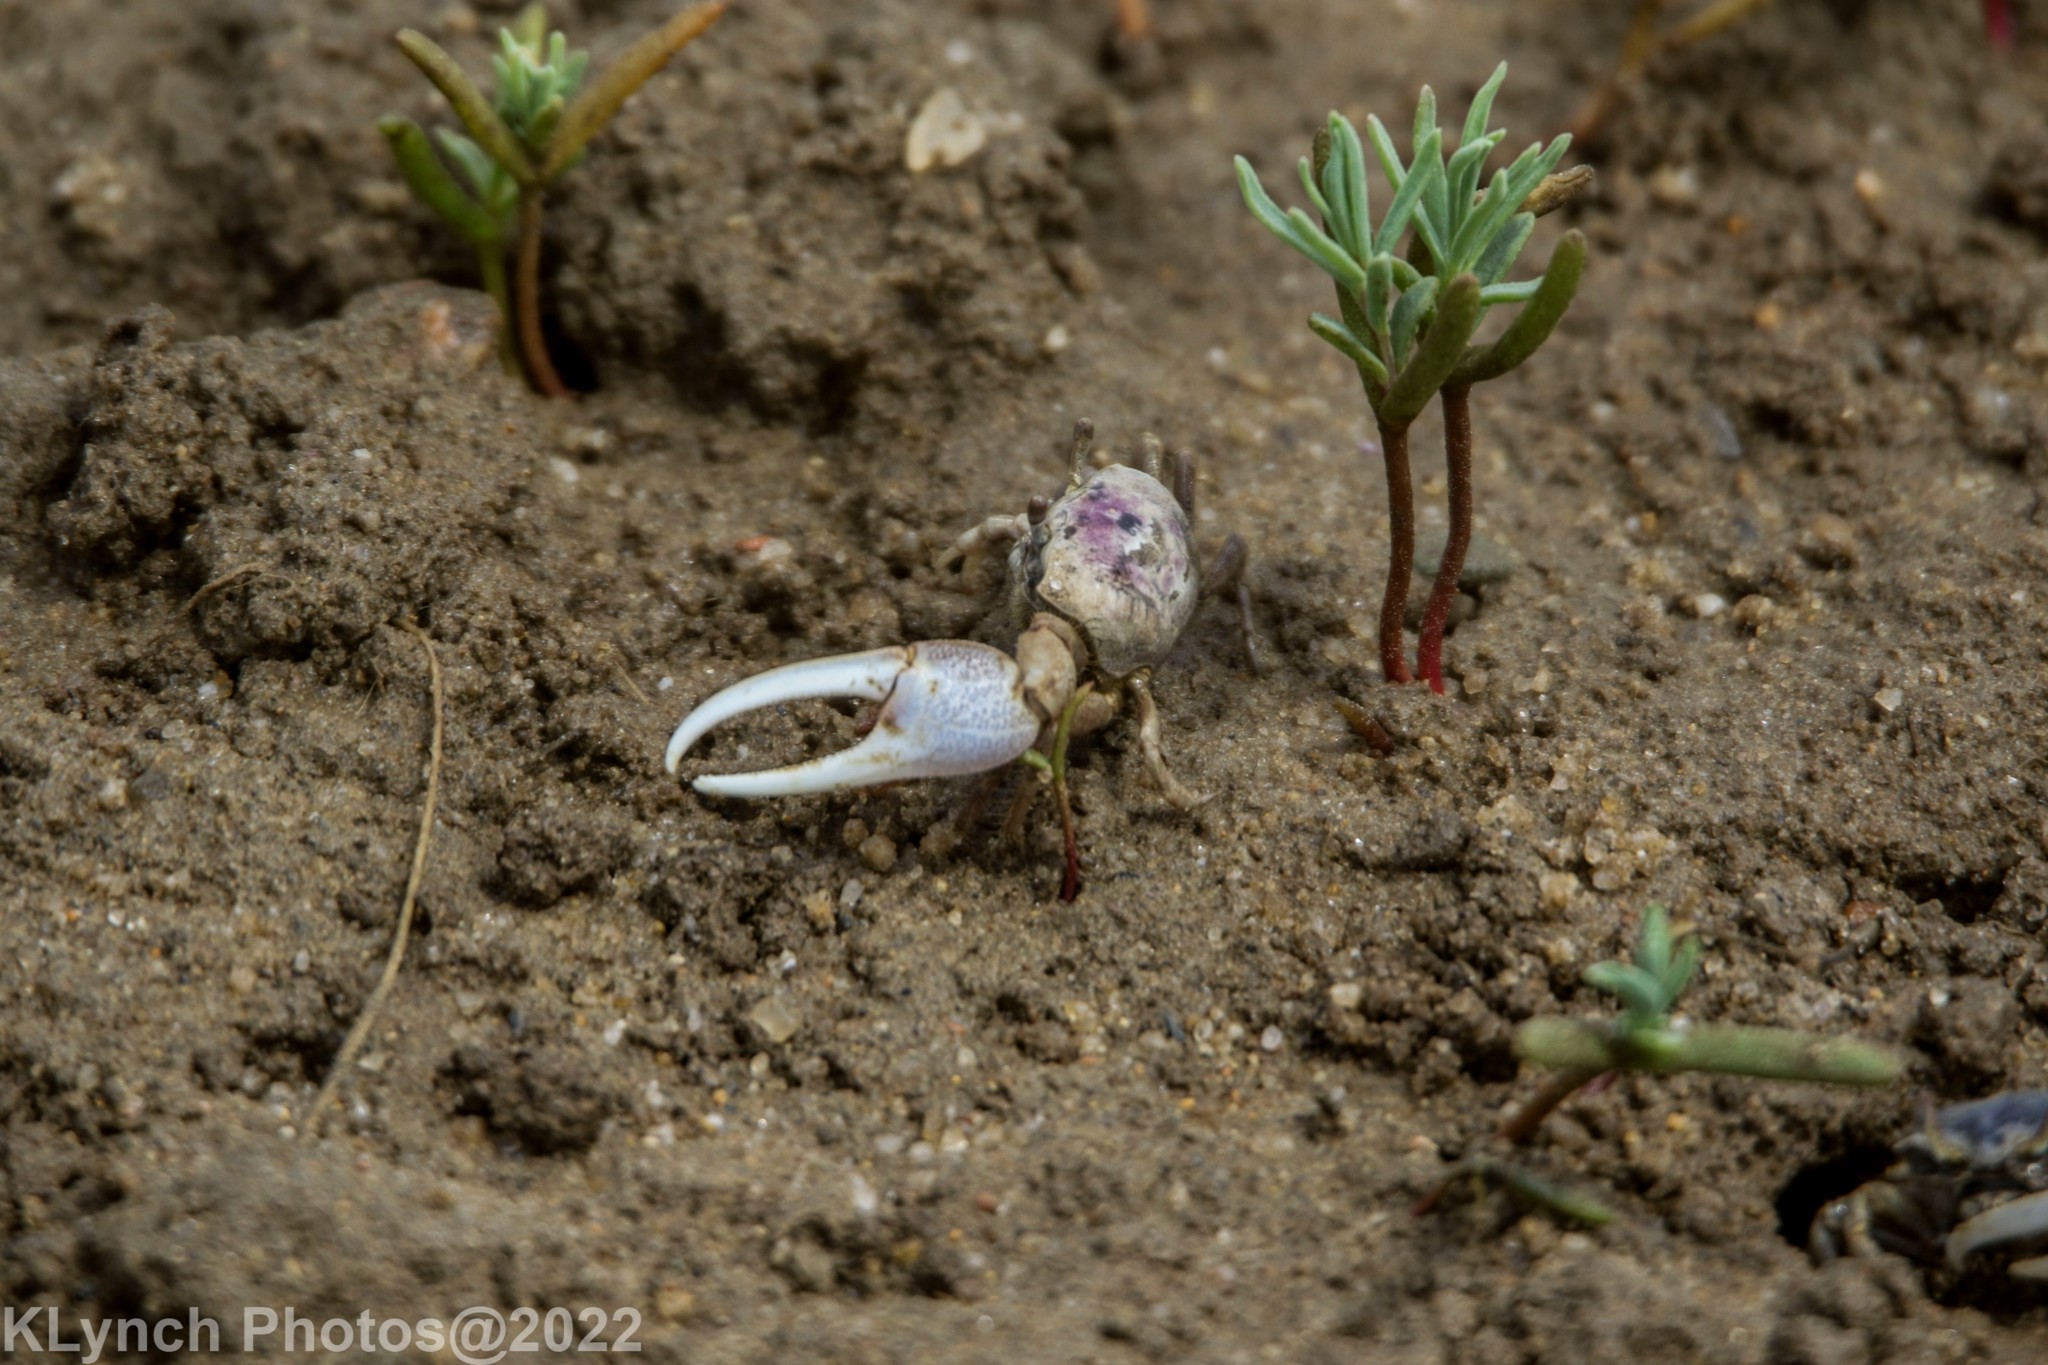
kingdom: Animalia
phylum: Arthropoda
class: Malacostraca
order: Decapoda
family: Ocypodidae
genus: Leptuca
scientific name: Leptuca pugilator
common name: Atlantic sand fiddler crab
